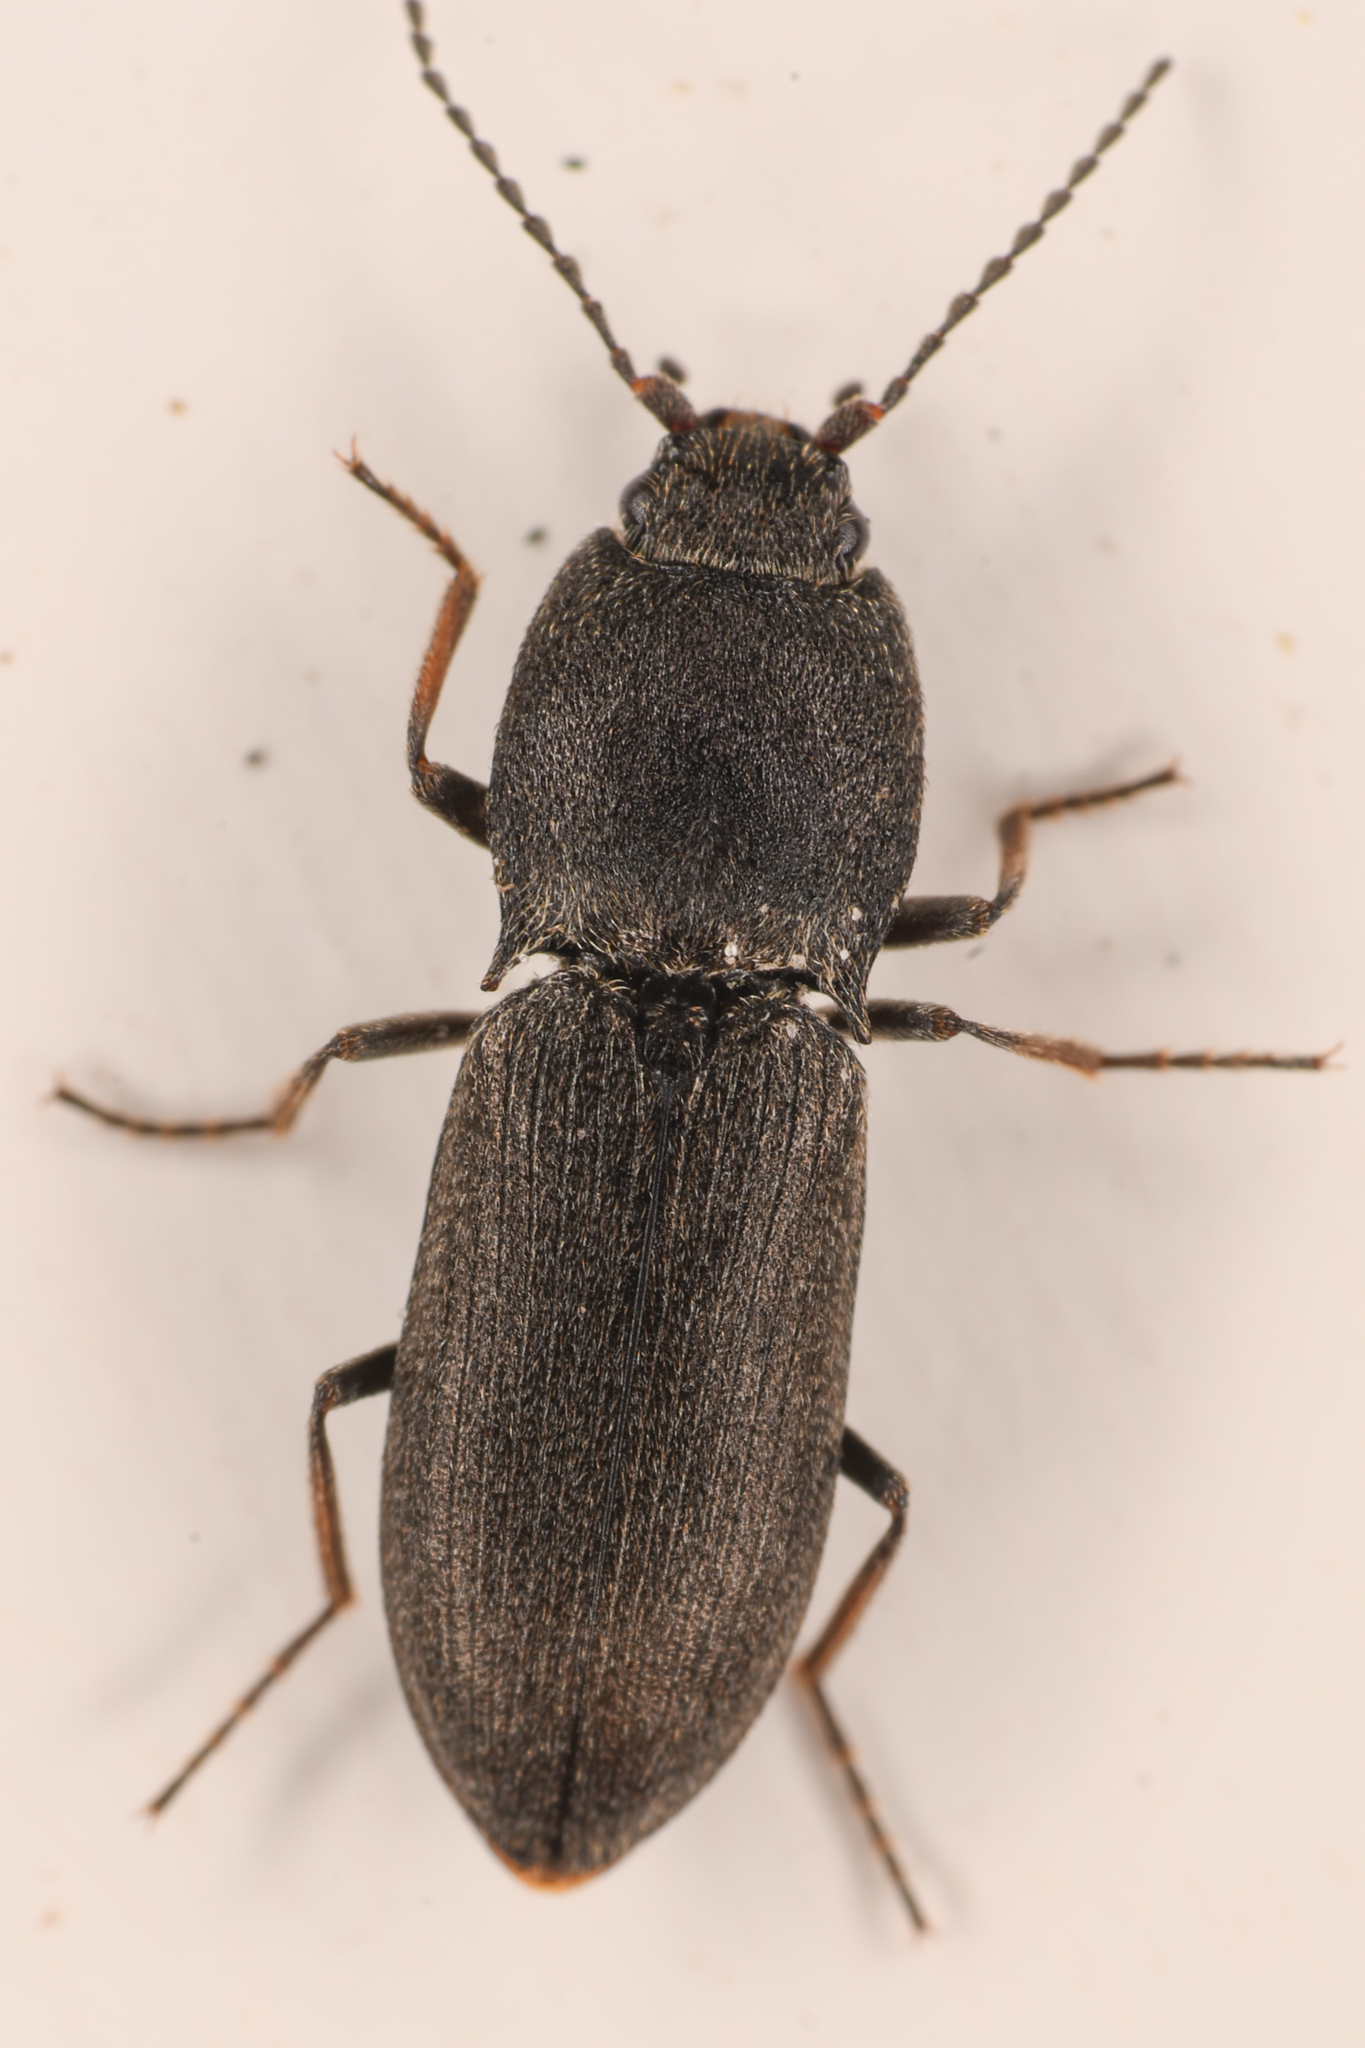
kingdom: Animalia
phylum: Arthropoda
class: Insecta
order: Coleoptera
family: Elateridae
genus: Ligmargus
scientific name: Ligmargus funebris
